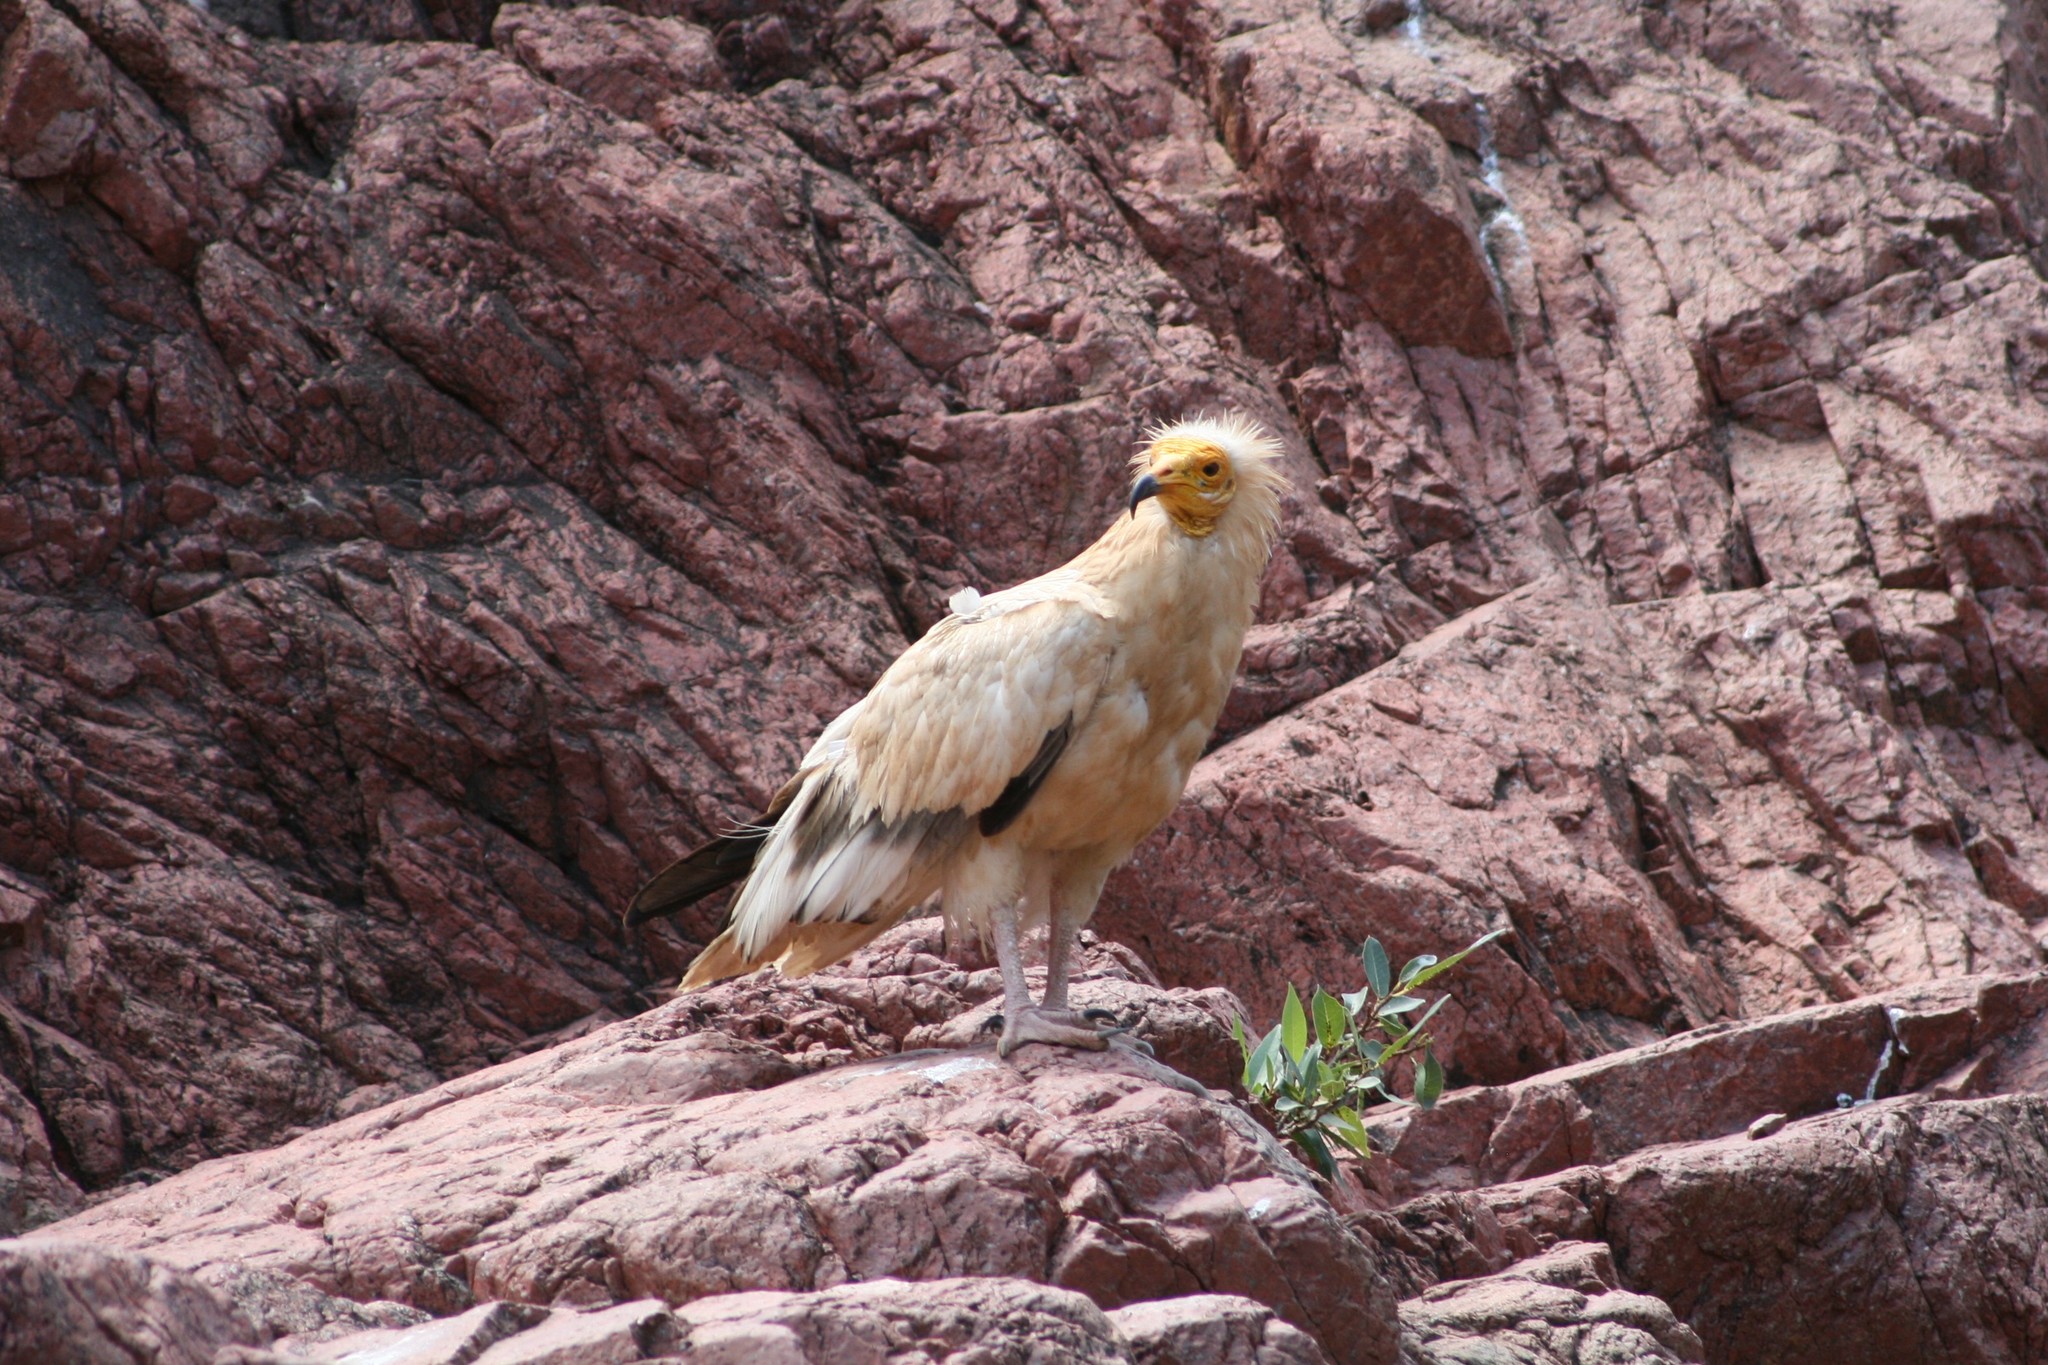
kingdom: Animalia
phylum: Chordata
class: Aves
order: Accipitriformes
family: Accipitridae
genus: Neophron
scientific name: Neophron percnopterus
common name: Egyptian vulture
